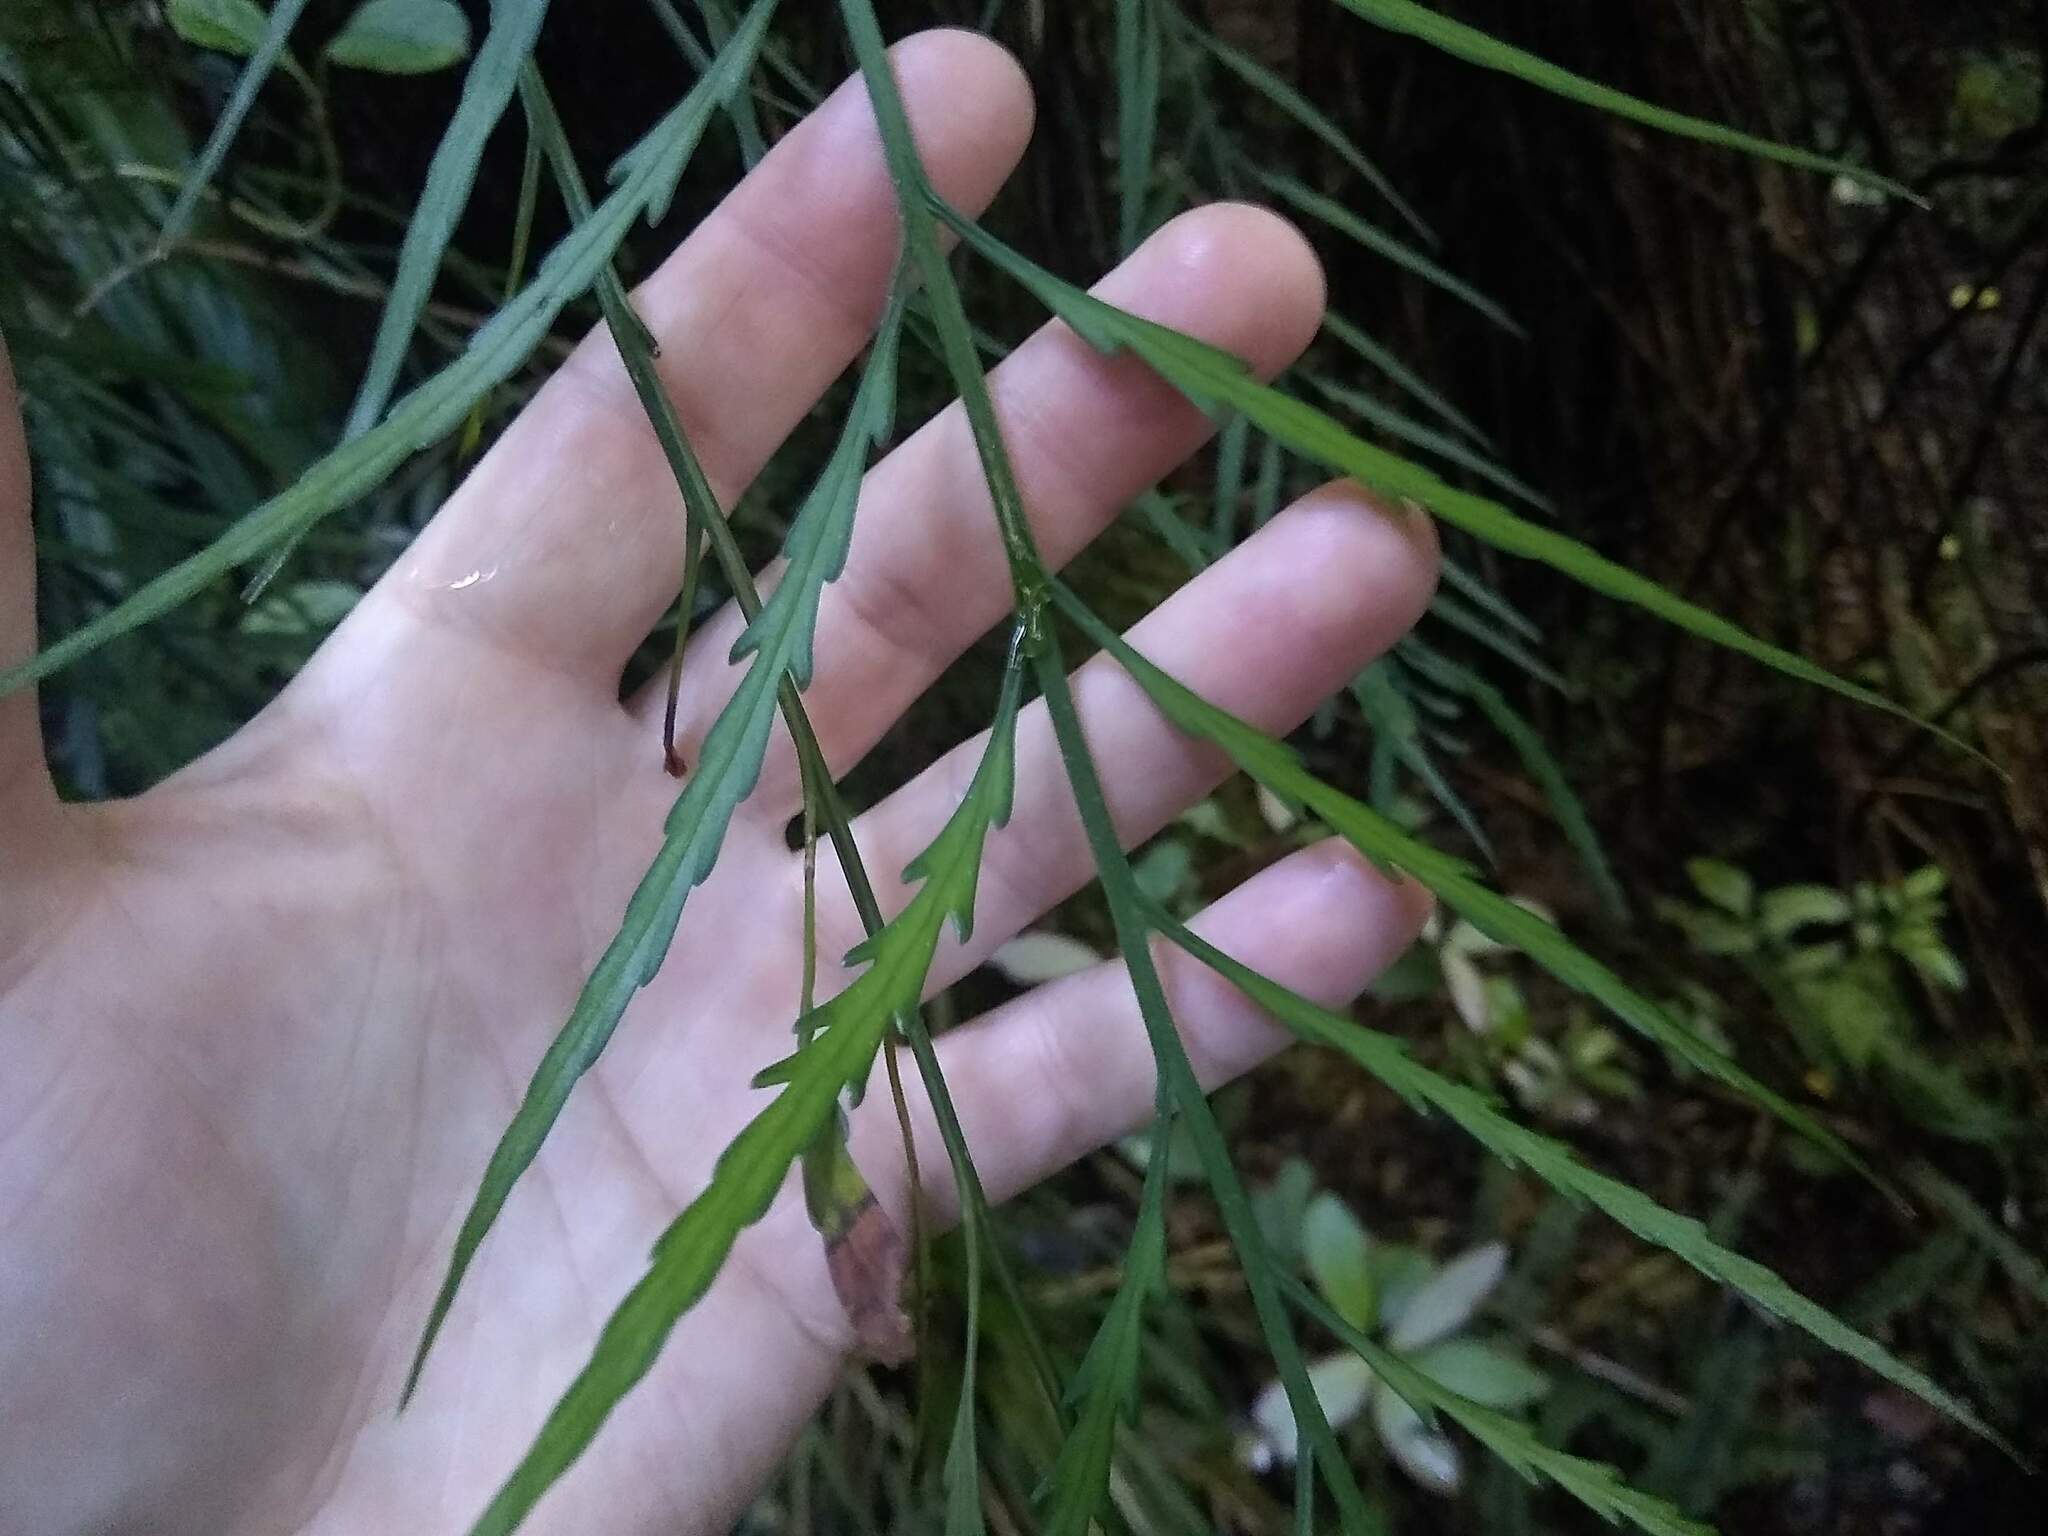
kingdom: Plantae
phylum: Tracheophyta
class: Polypodiopsida
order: Polypodiales
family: Aspleniaceae
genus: Asplenium
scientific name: Asplenium flaccidum
